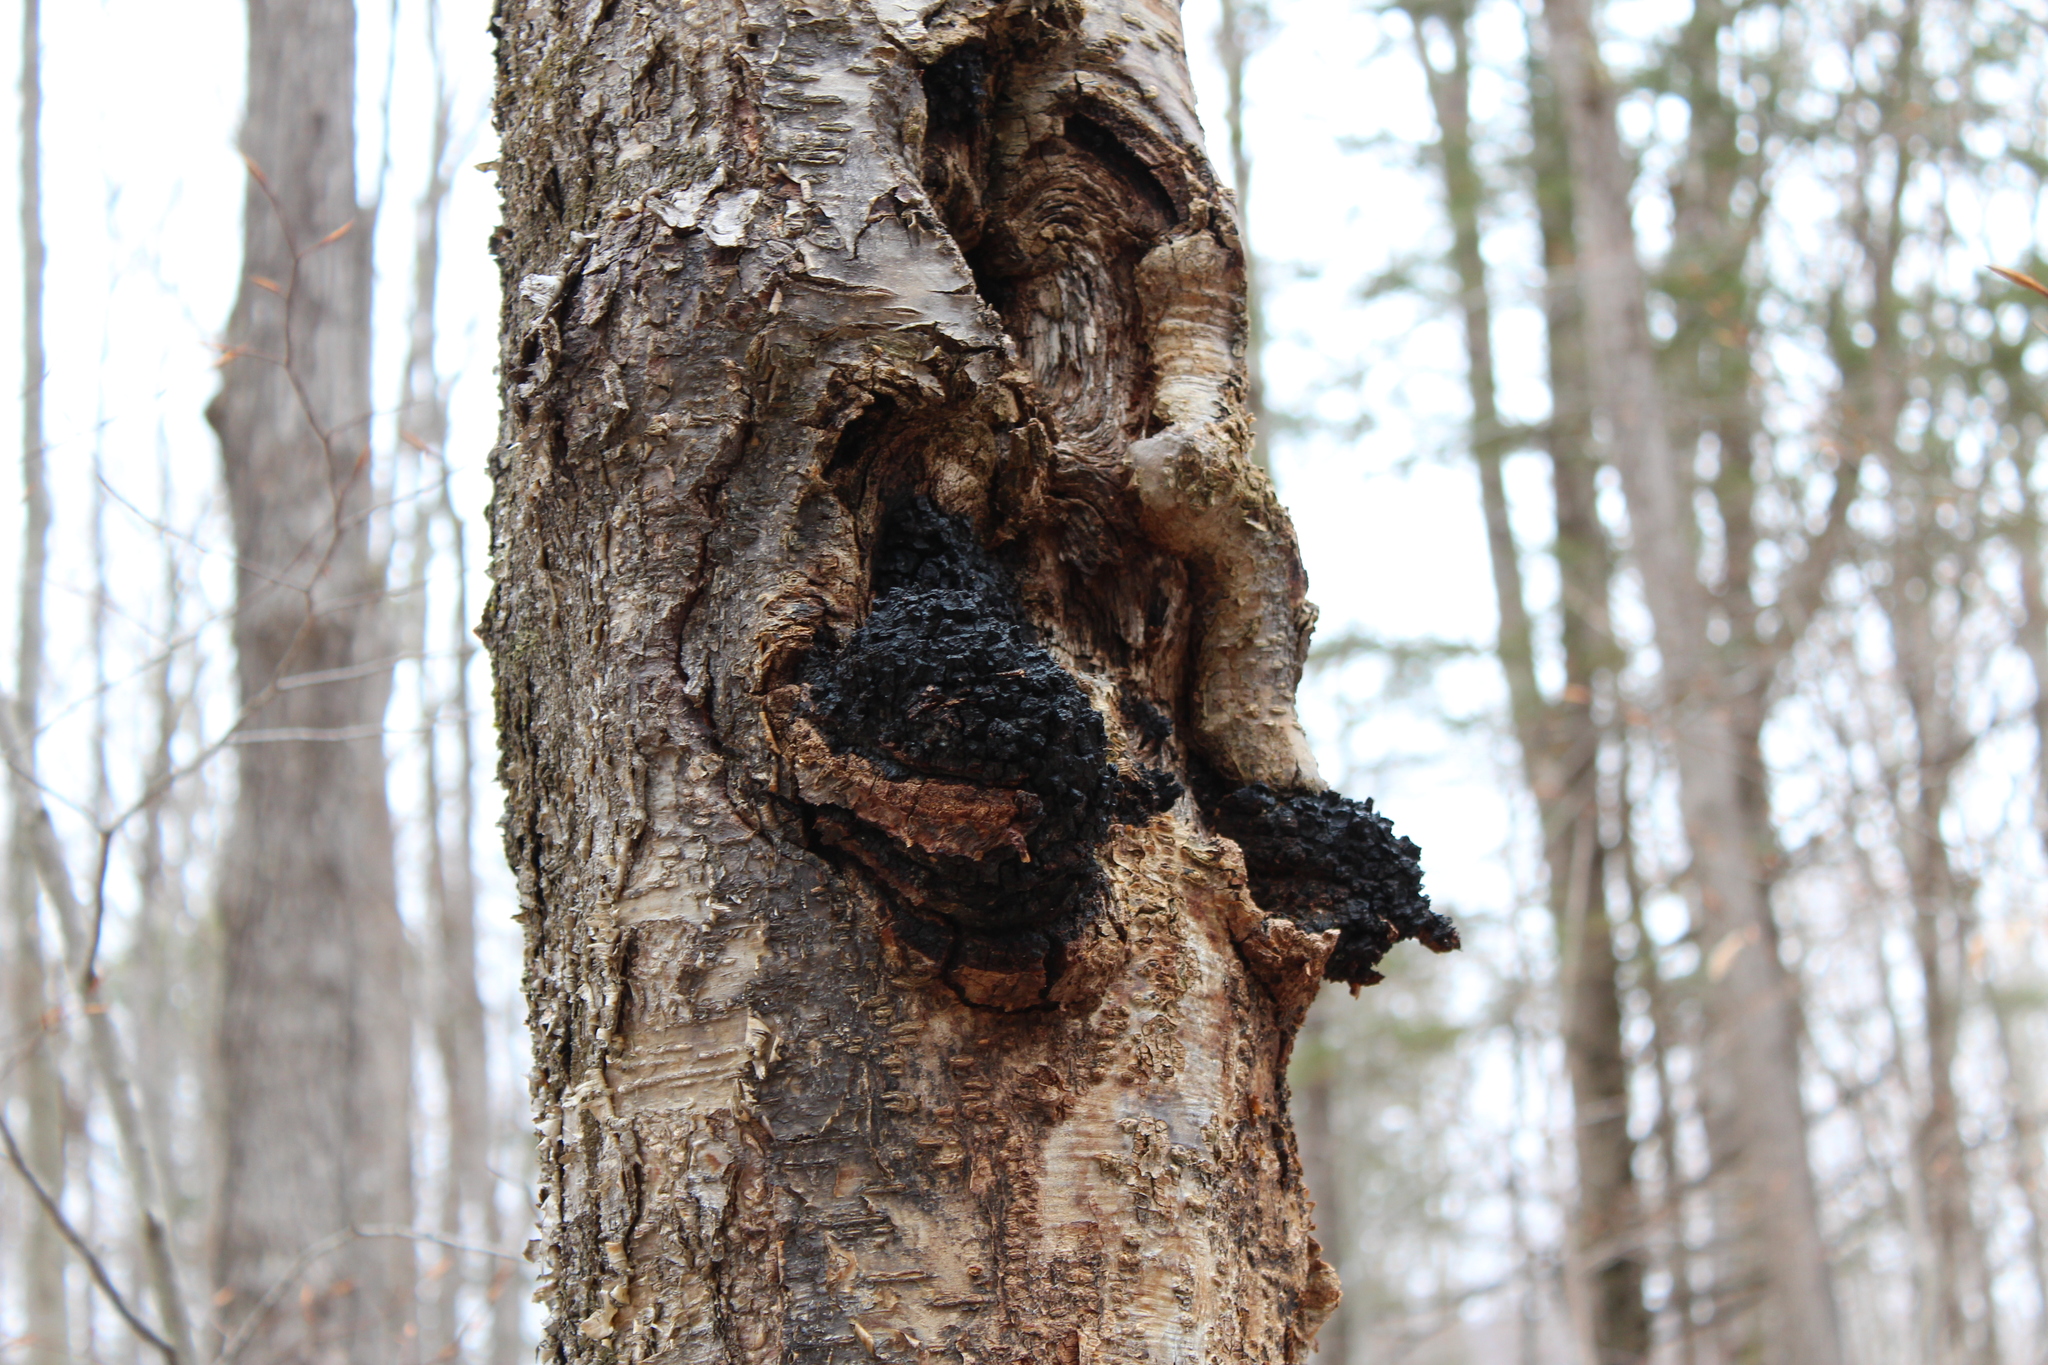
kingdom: Fungi
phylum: Basidiomycota
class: Agaricomycetes
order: Hymenochaetales
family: Hymenochaetaceae
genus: Inonotus
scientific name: Inonotus obliquus
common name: Chaga
